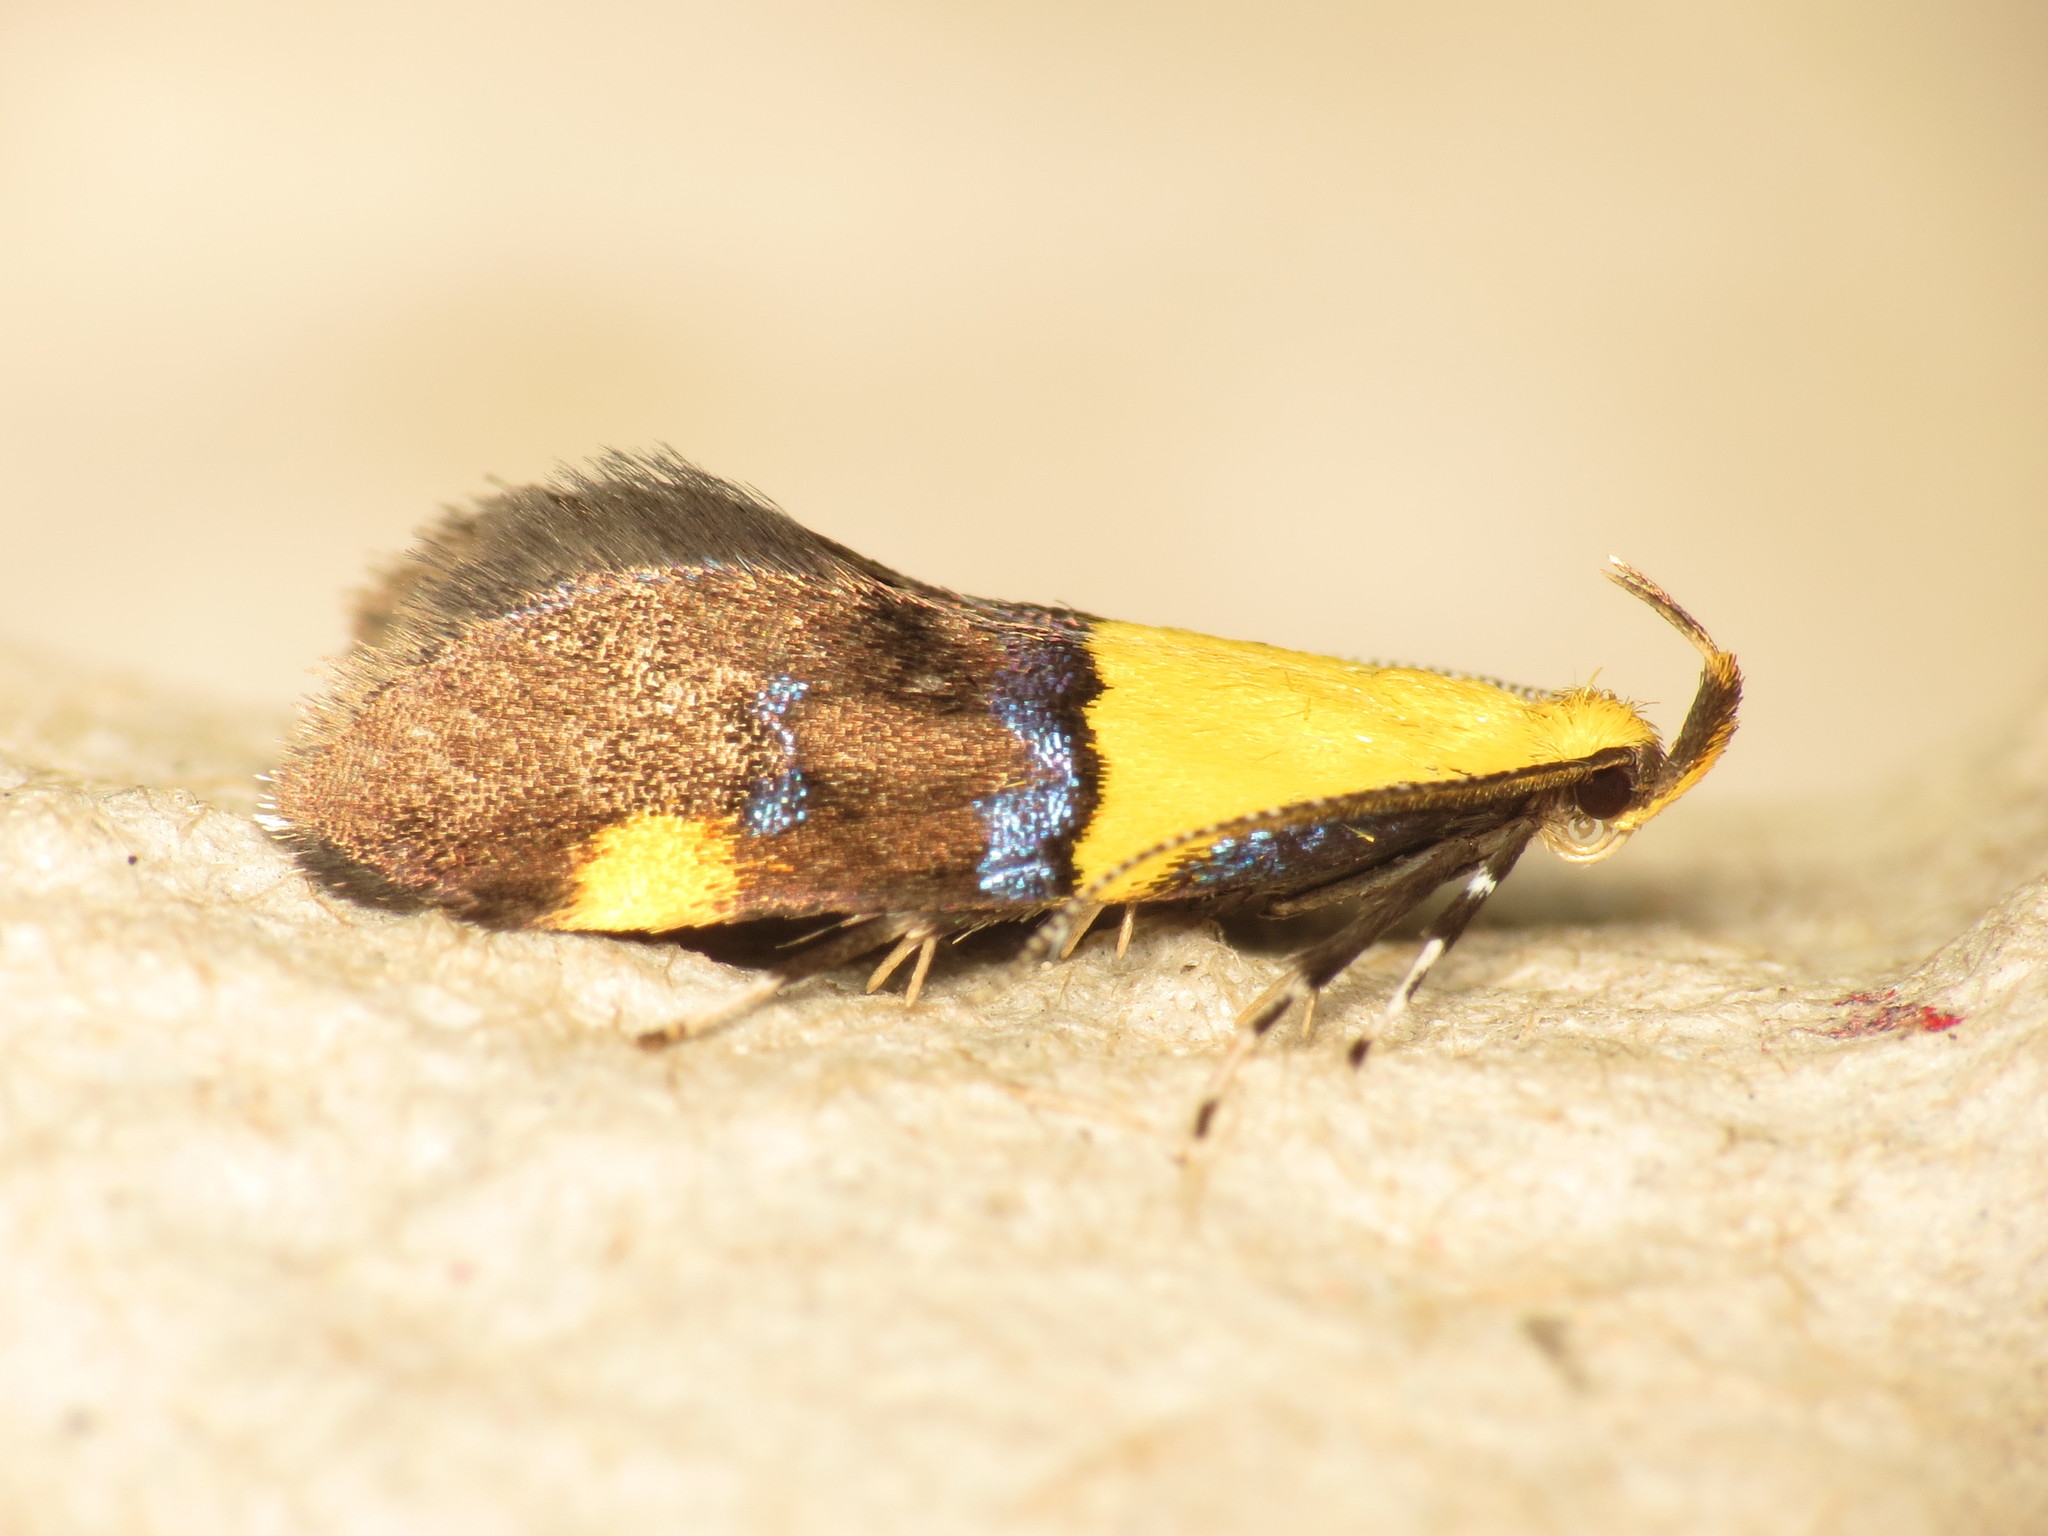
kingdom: Animalia
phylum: Arthropoda
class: Insecta
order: Lepidoptera
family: Oecophoridae
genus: Oecophora
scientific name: Oecophora bractella
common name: Gold-base tubic
